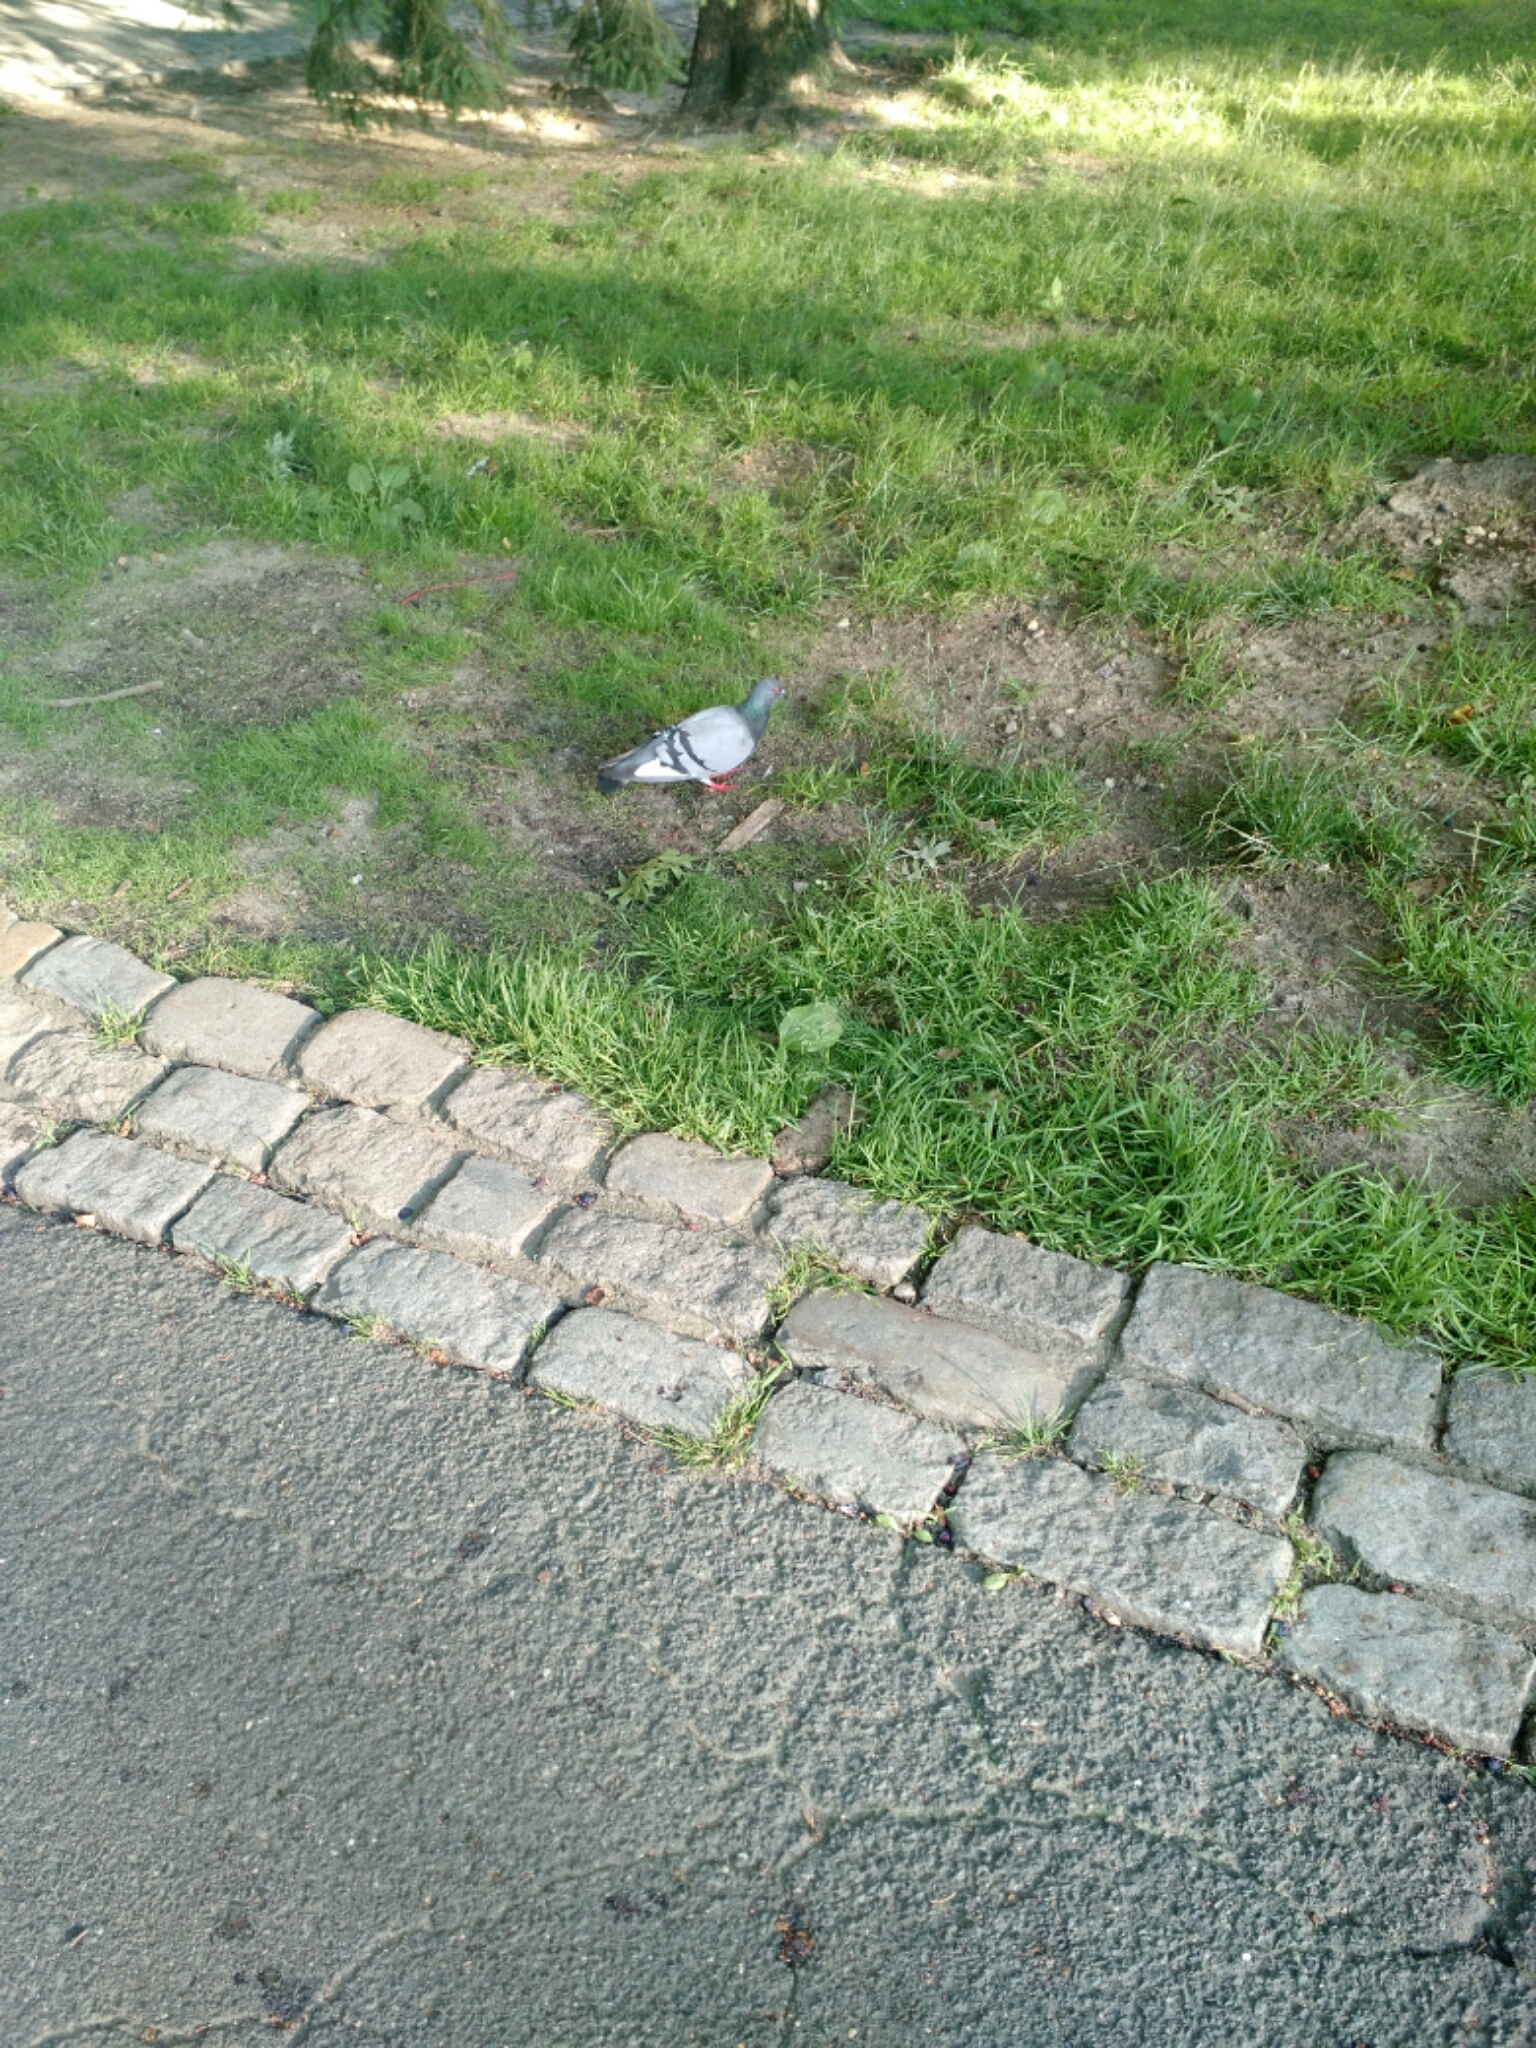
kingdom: Animalia
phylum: Chordata
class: Aves
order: Columbiformes
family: Columbidae
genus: Columba
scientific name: Columba livia
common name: Rock pigeon
